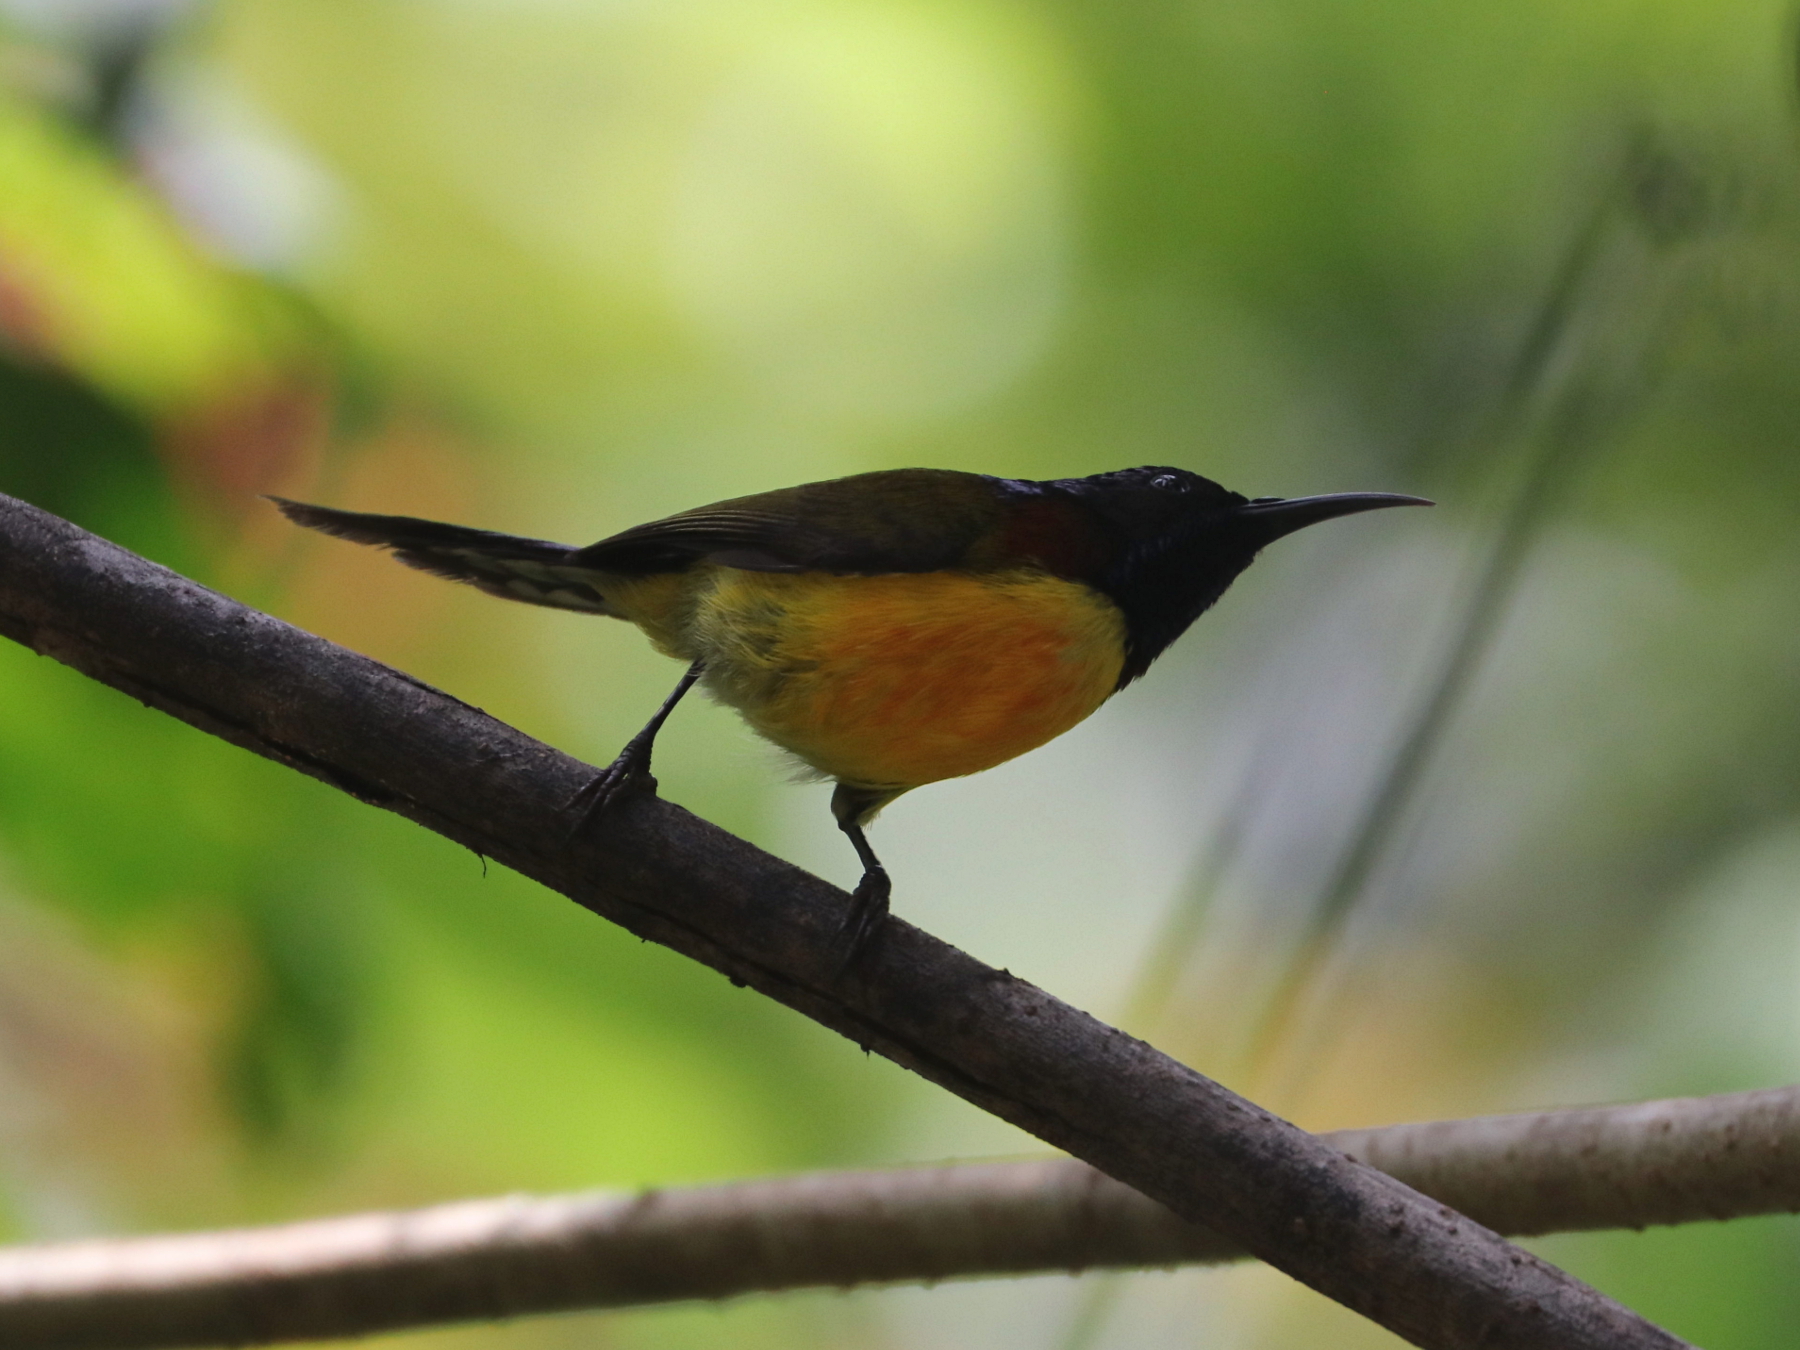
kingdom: Animalia
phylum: Chordata
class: Aves
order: Passeriformes
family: Nectariniidae
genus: Aethopyga
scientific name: Aethopyga nipalensis
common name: Green-tailed sunbird
